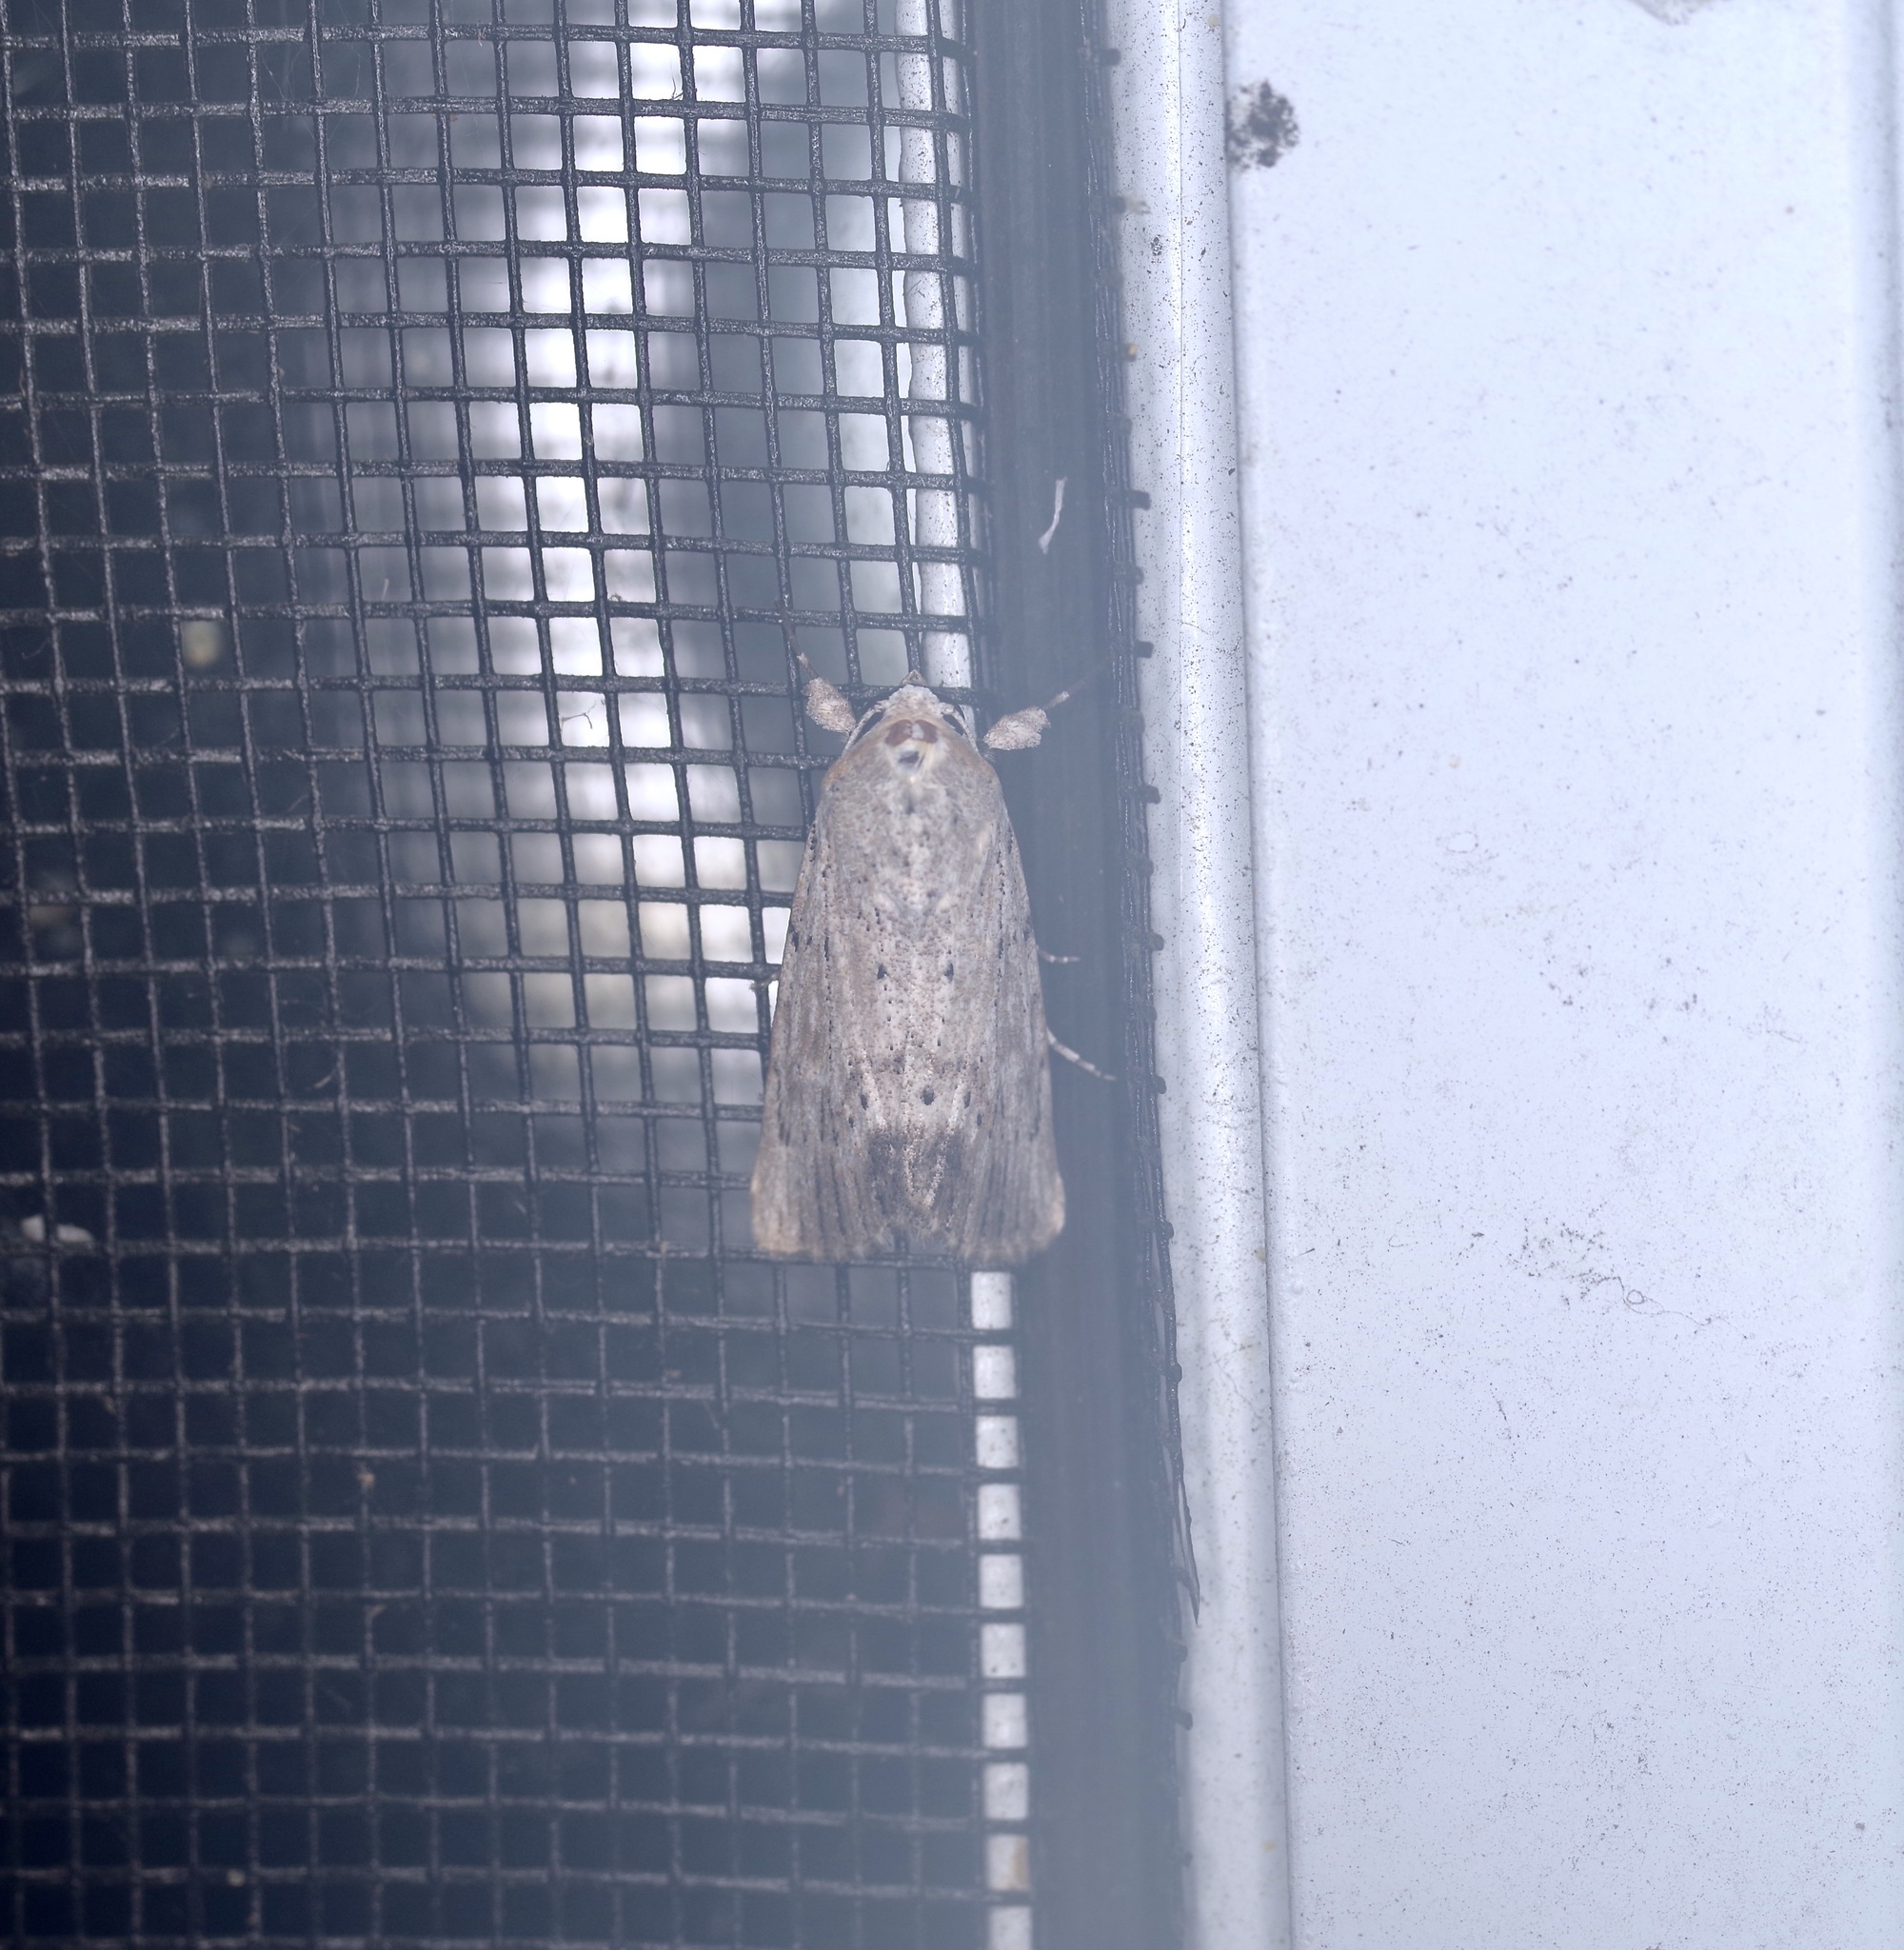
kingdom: Animalia
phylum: Arthropoda
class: Insecta
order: Lepidoptera
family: Noctuidae
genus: Catabenoides
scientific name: Catabenoides terminellus
